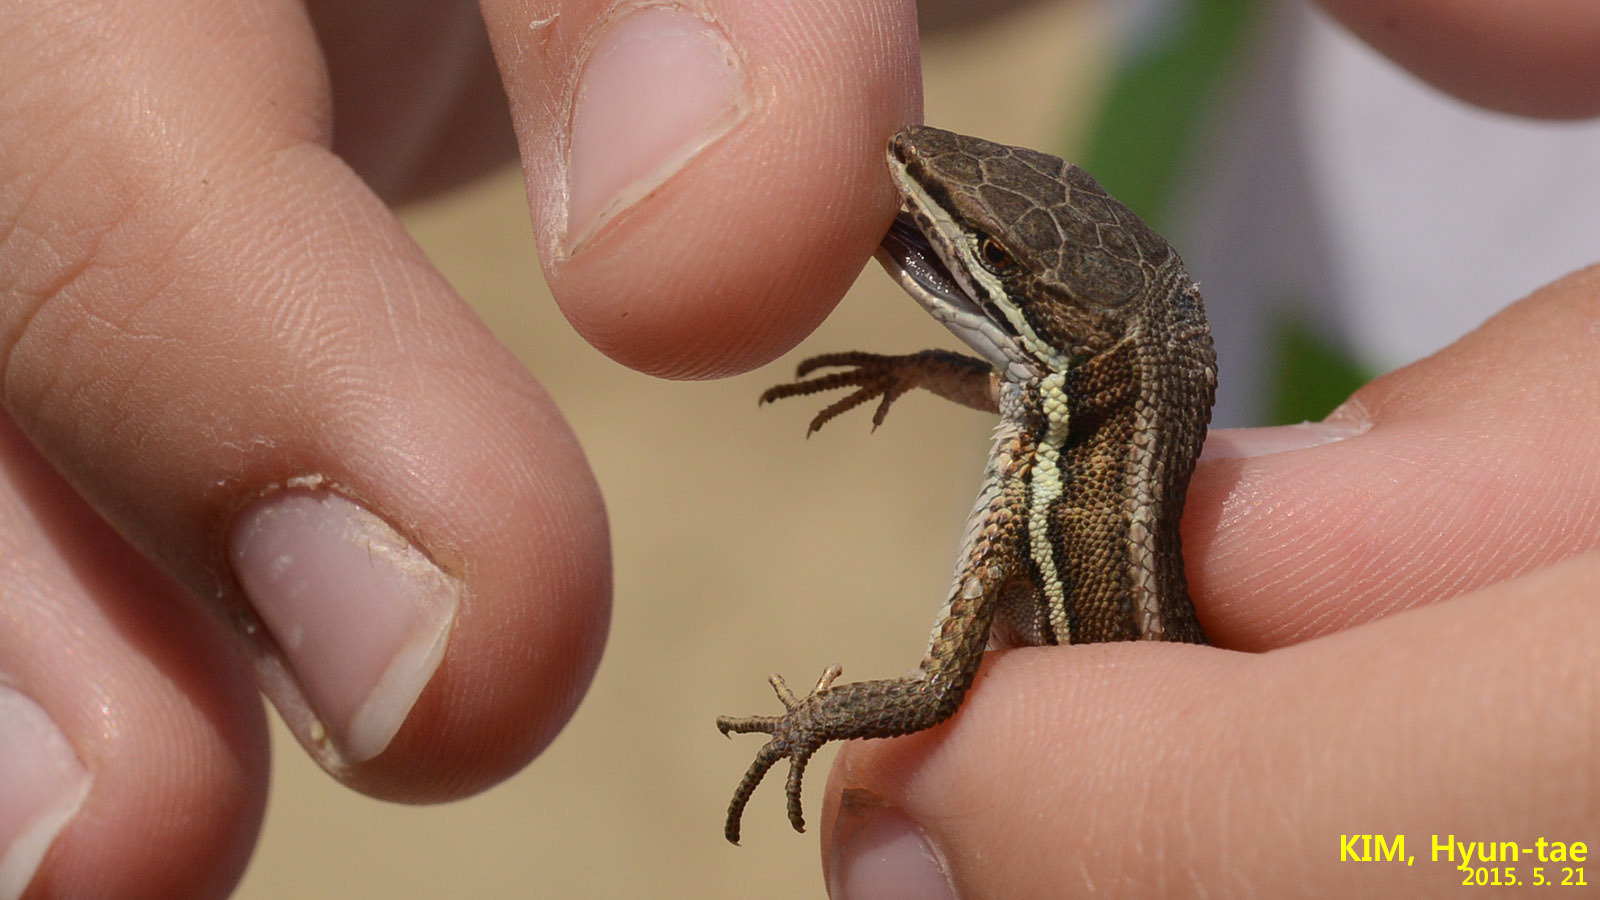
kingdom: Animalia
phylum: Chordata
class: Squamata
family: Lacertidae
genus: Takydromus
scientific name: Takydromus wolteri
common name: Mountain grass lizard
